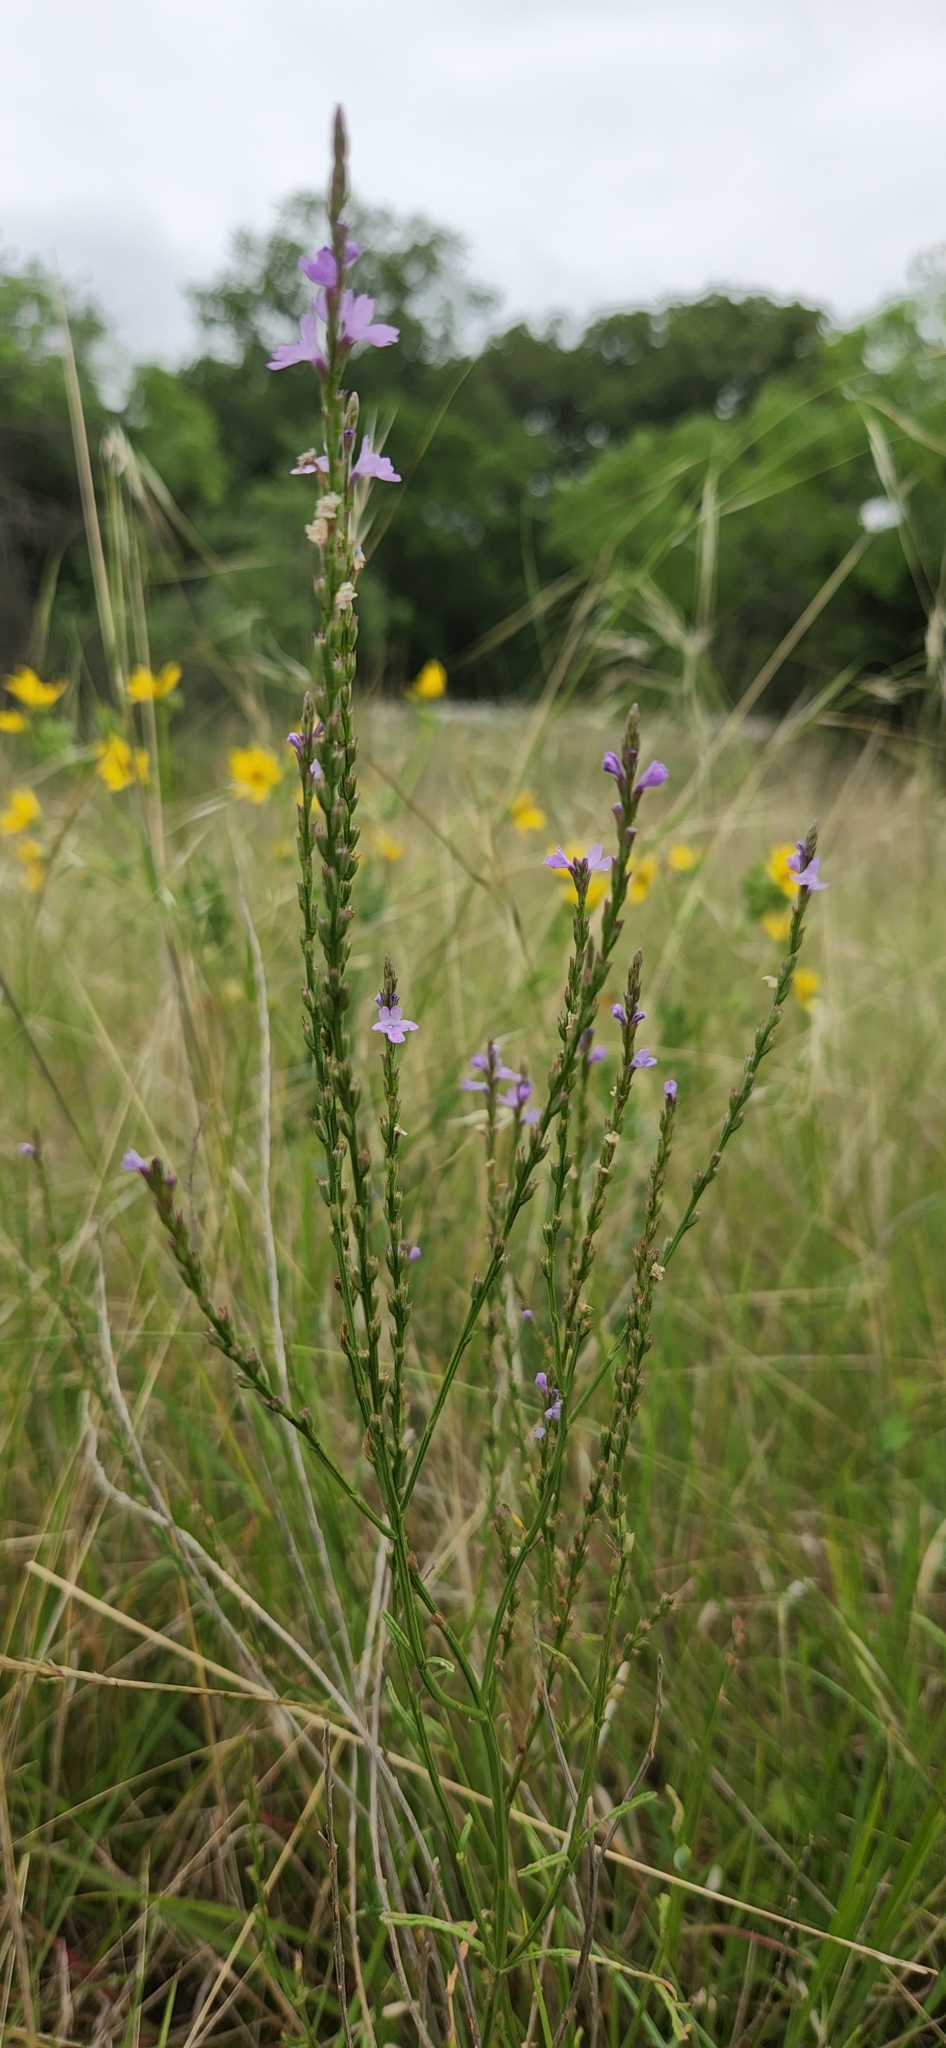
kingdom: Plantae
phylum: Tracheophyta
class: Magnoliopsida
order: Lamiales
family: Verbenaceae
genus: Verbena
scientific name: Verbena halei
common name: Texas vervain
